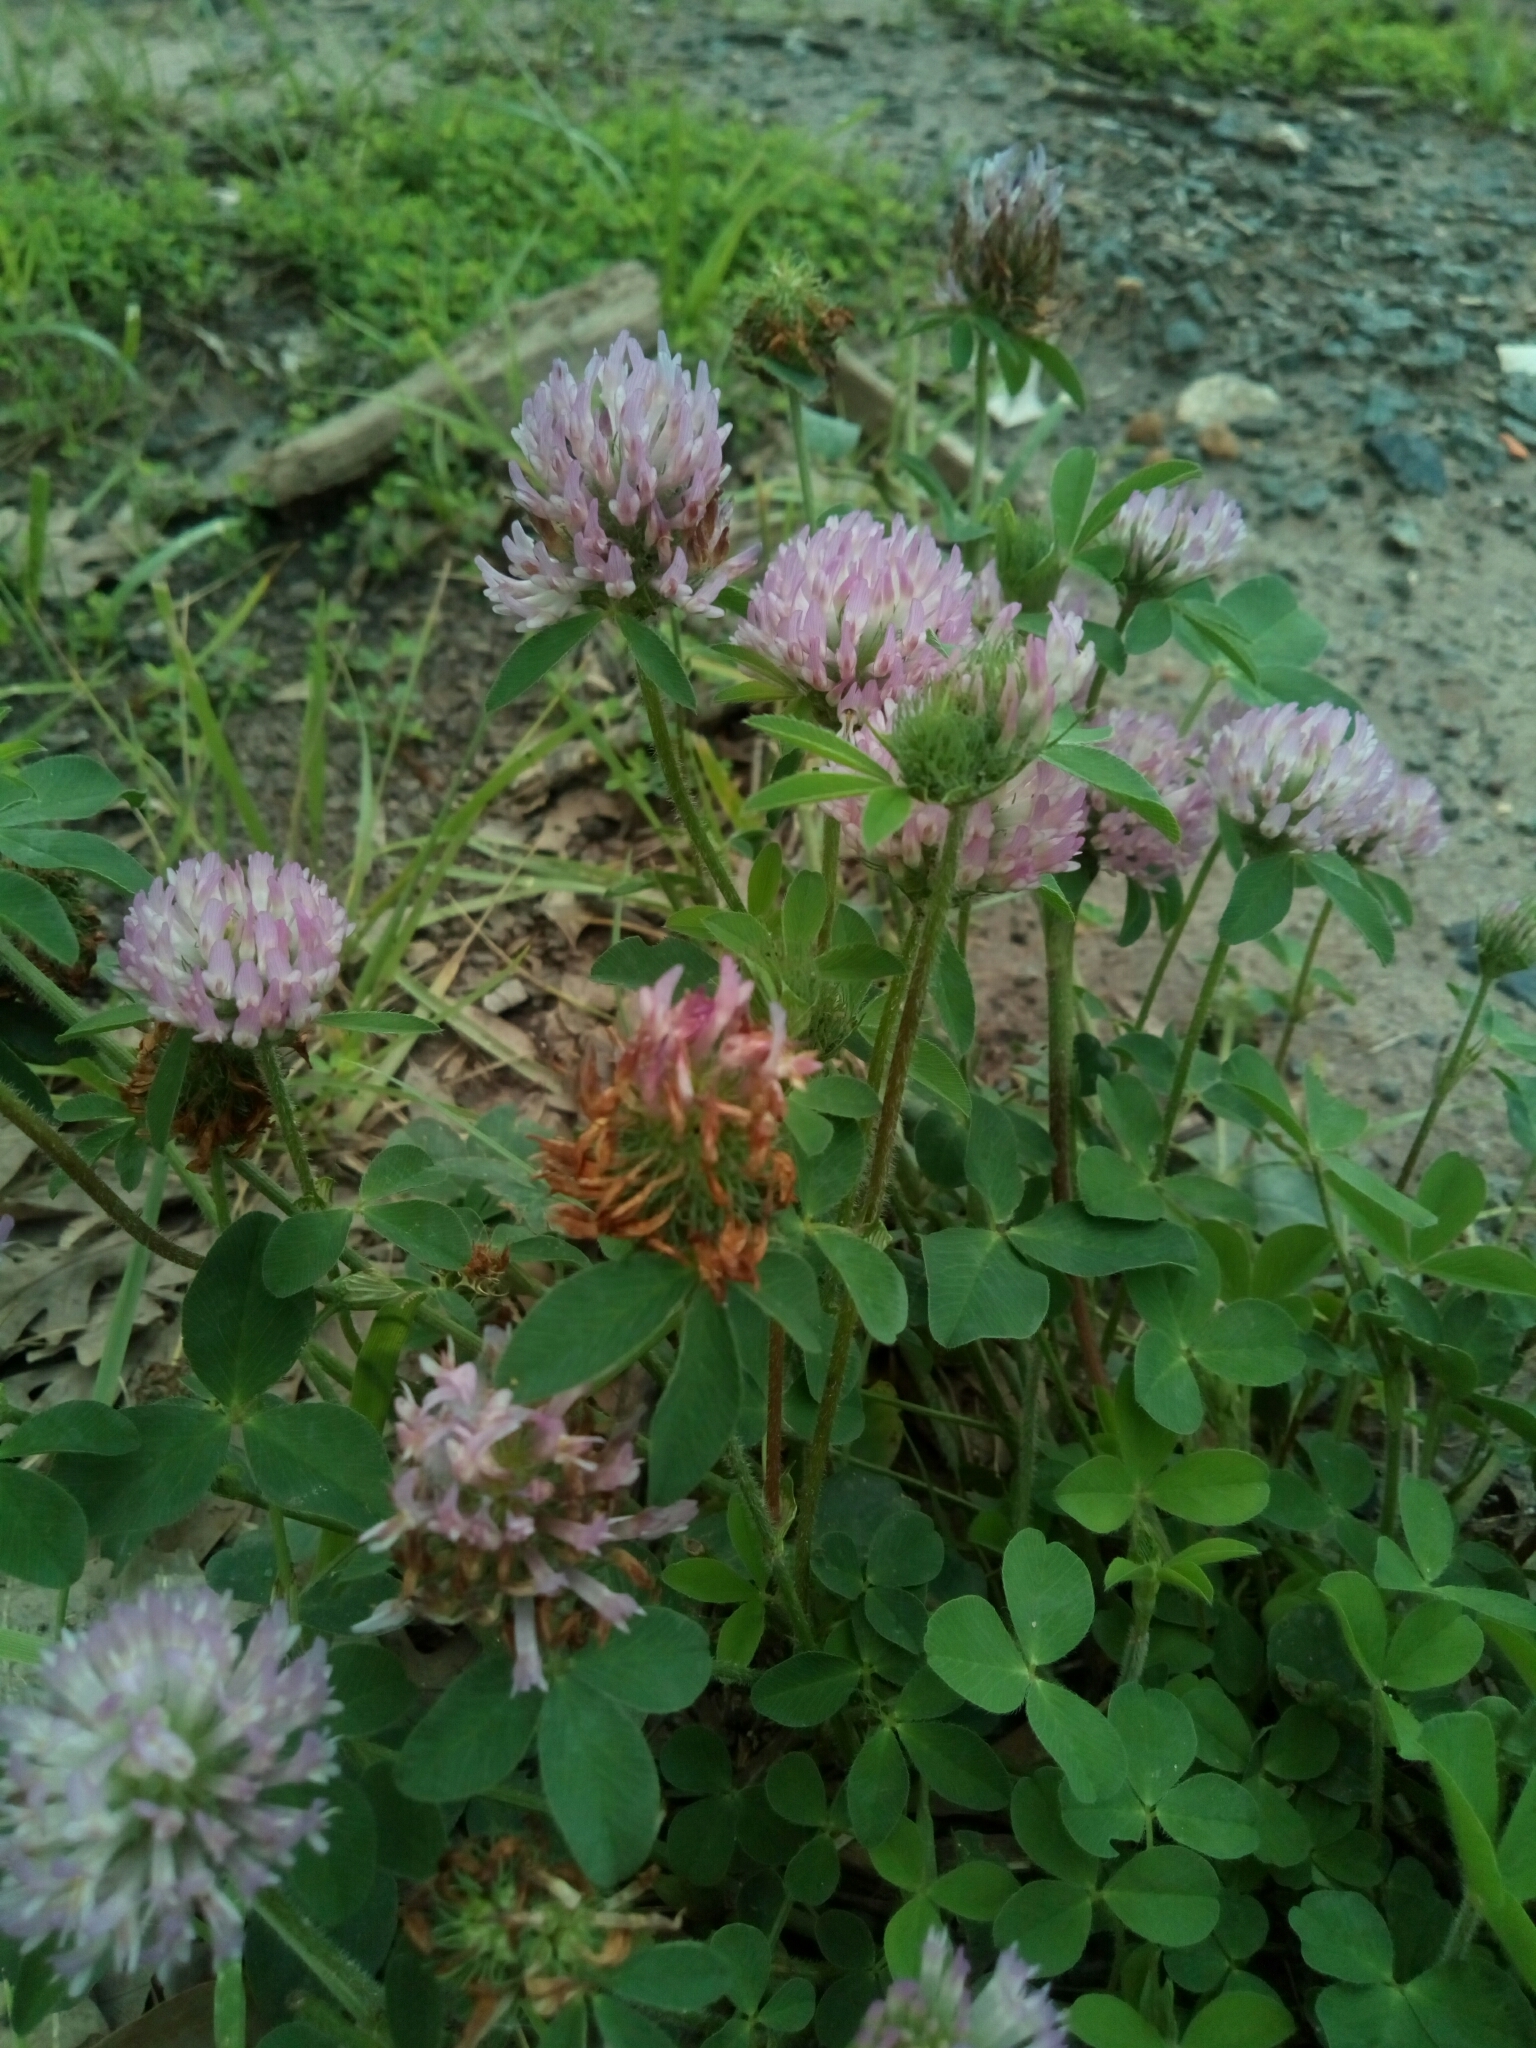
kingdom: Plantae
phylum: Tracheophyta
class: Magnoliopsida
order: Fabales
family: Fabaceae
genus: Trifolium
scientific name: Trifolium pratense
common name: Red clover
